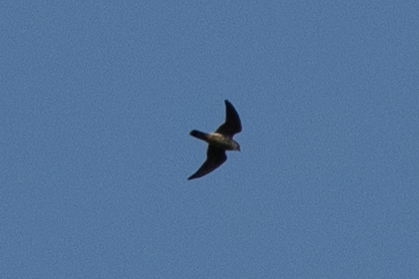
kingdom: Animalia
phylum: Chordata
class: Aves
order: Falconiformes
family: Falconidae
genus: Falco
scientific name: Falco columbarius
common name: Merlin
